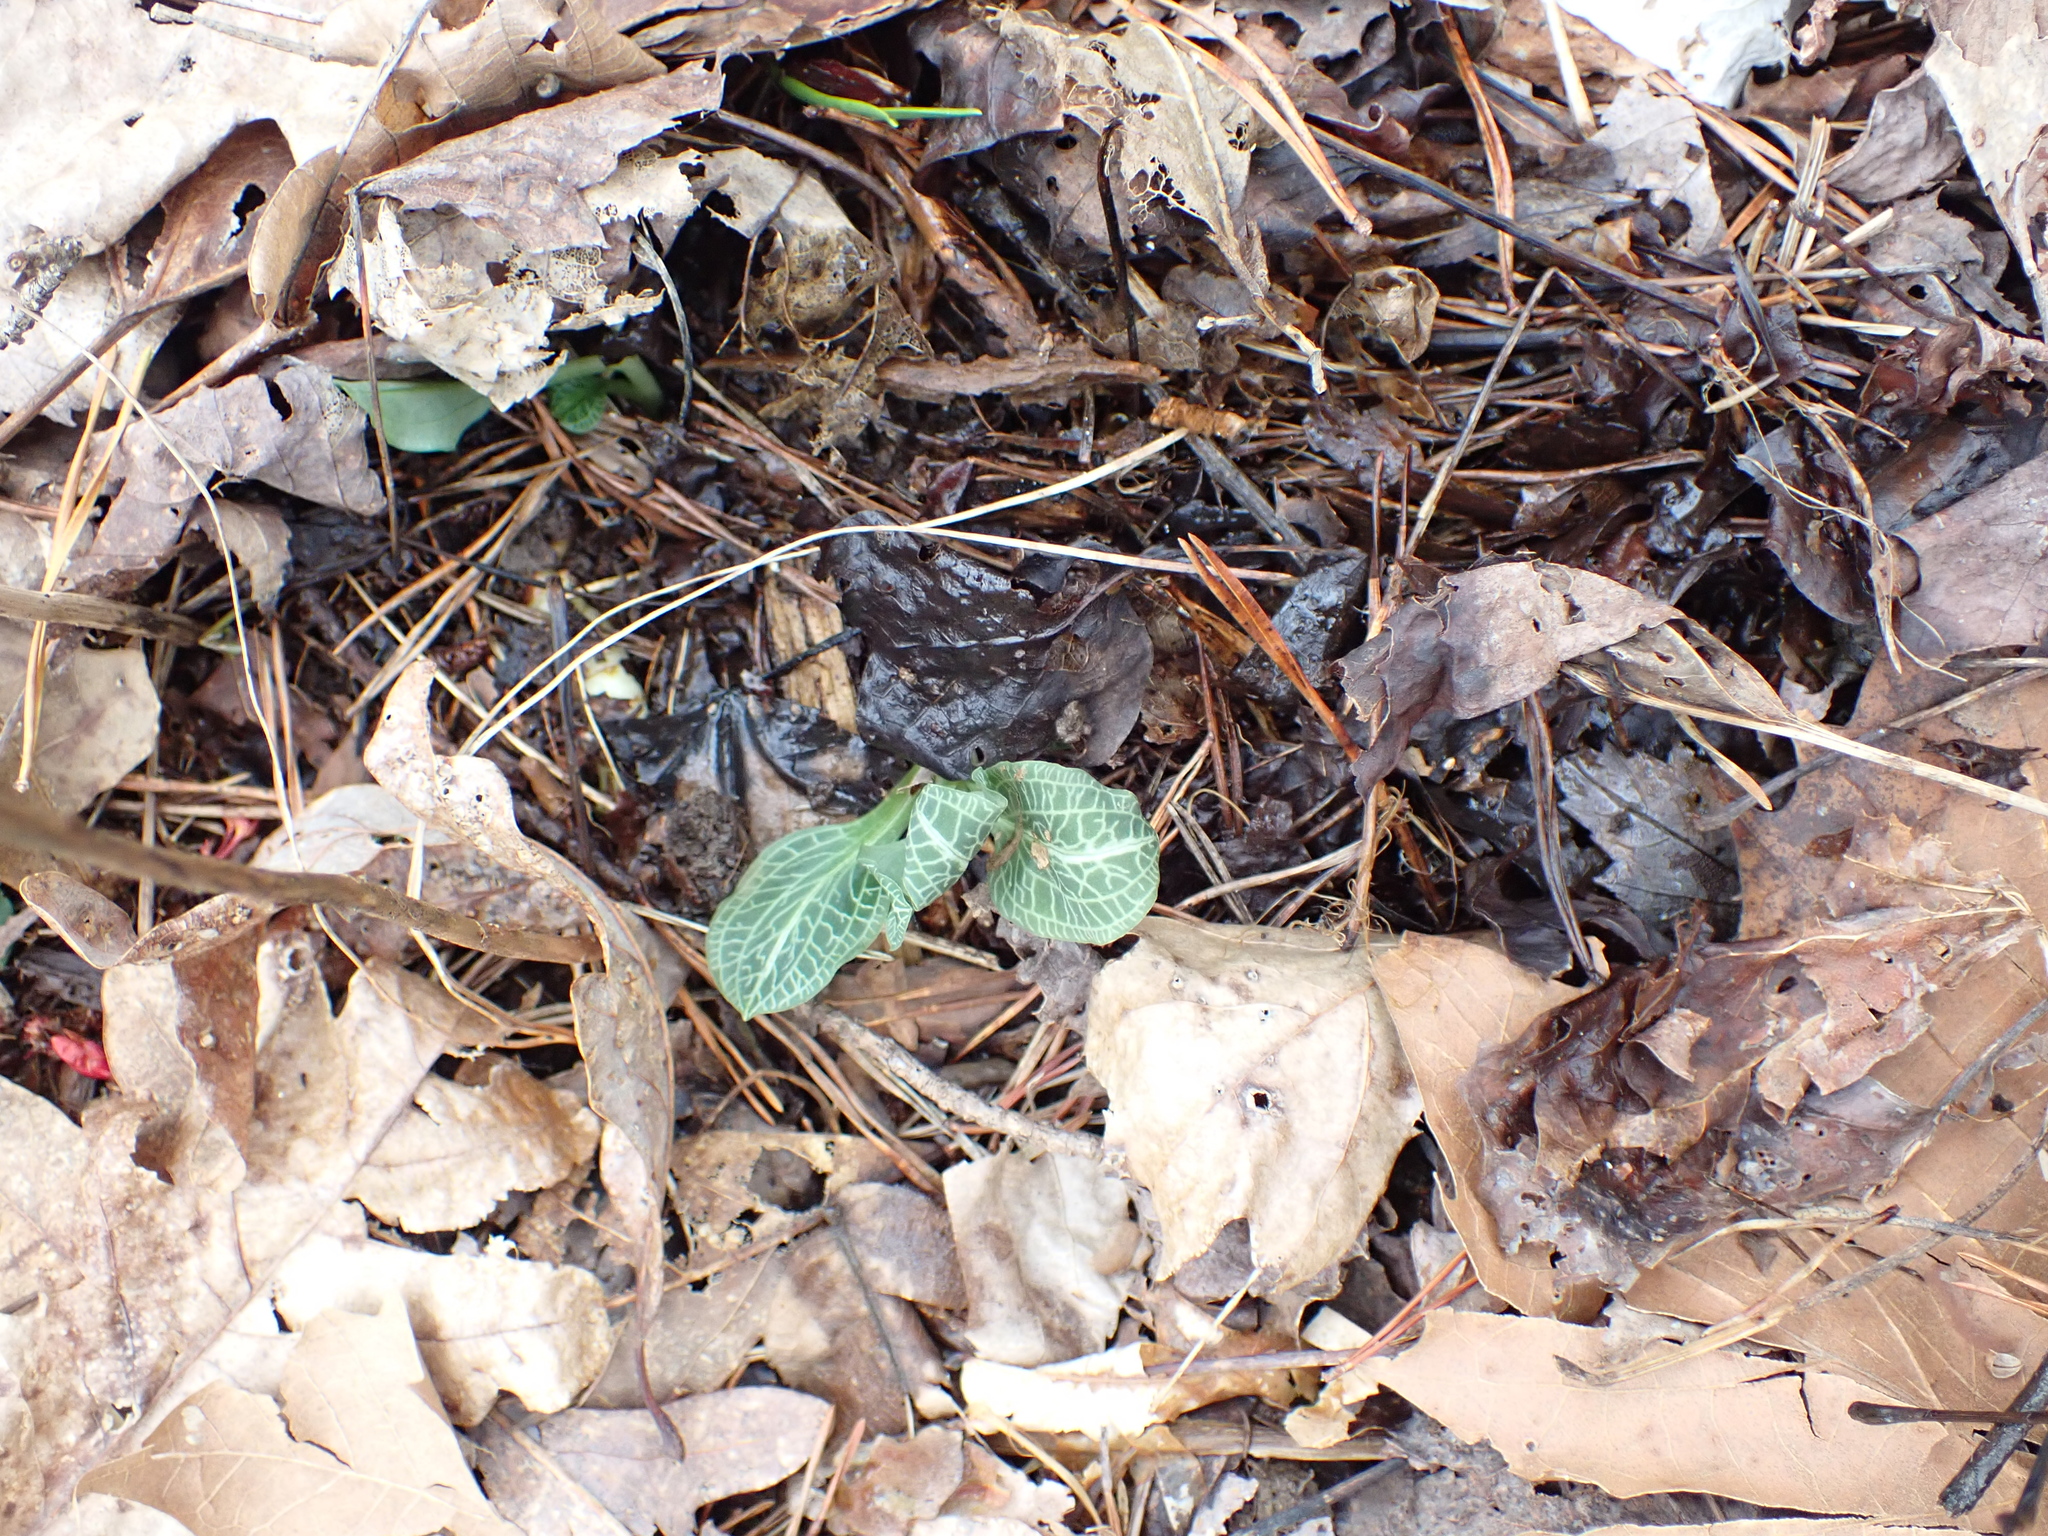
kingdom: Plantae
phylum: Tracheophyta
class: Liliopsida
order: Asparagales
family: Orchidaceae
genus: Goodyera
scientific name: Goodyera pubescens
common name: Downy rattlesnake-plantain
